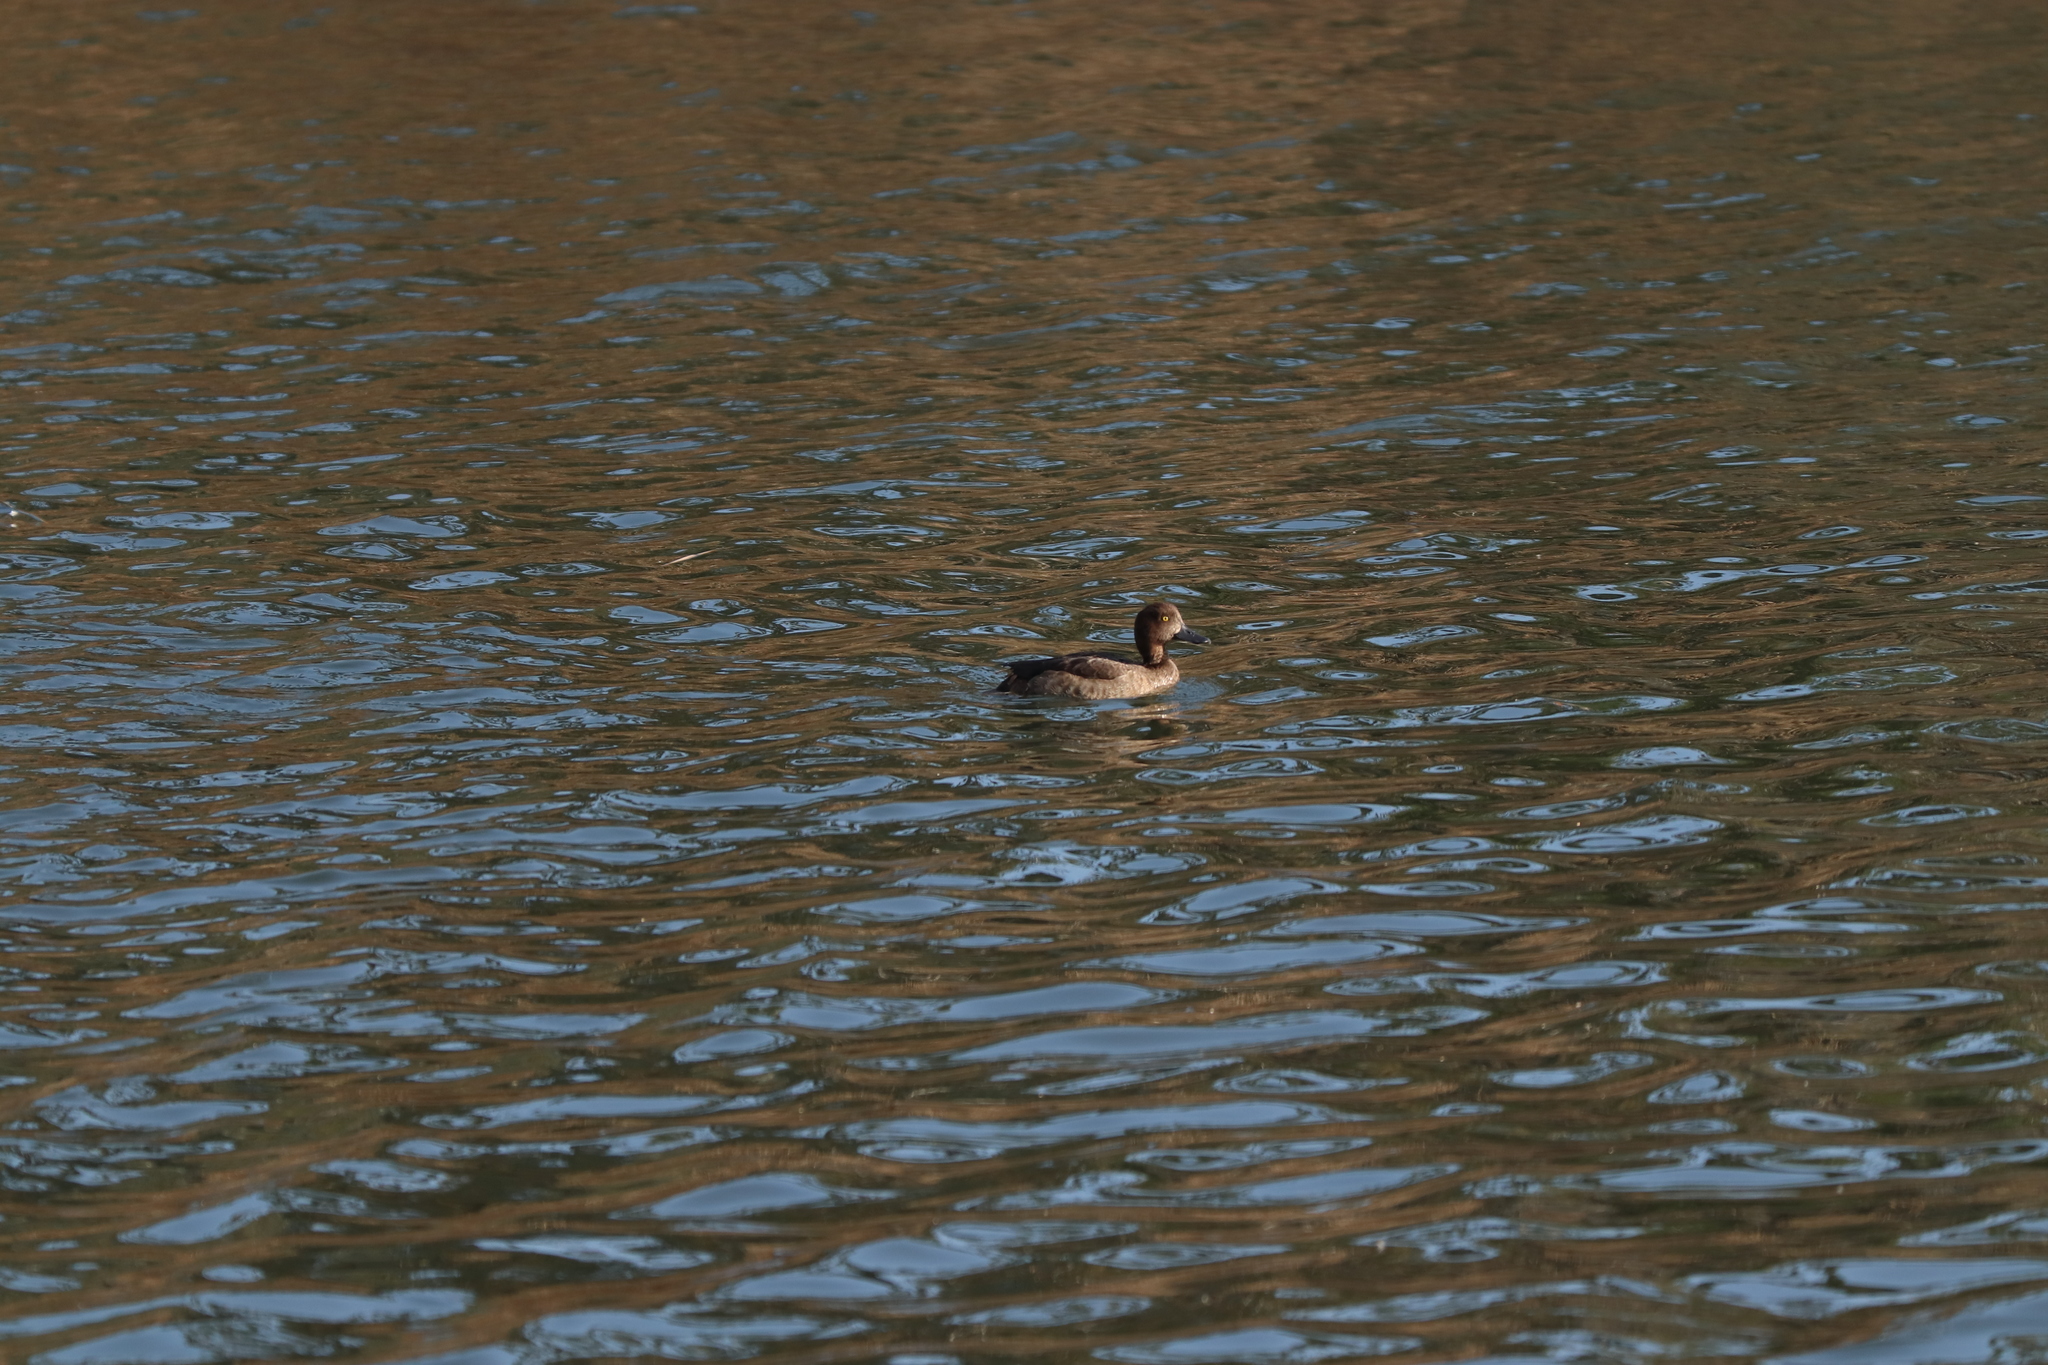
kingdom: Animalia
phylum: Chordata
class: Aves
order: Anseriformes
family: Anatidae
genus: Aythya
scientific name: Aythya fuligula
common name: Tufted duck
